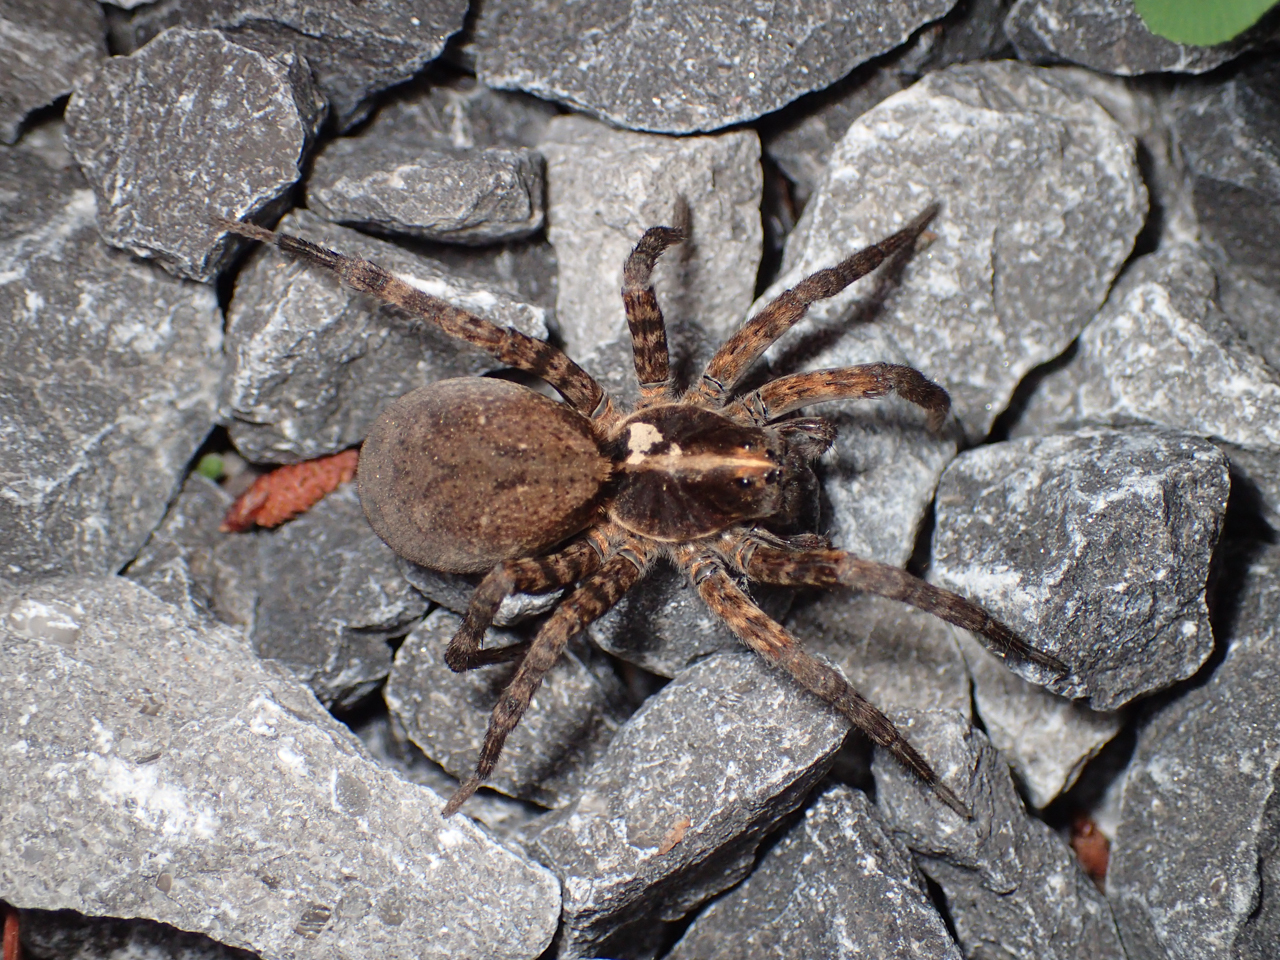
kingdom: Animalia
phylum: Arthropoda
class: Arachnida
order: Araneae
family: Lycosidae
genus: Tigrosa
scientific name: Tigrosa georgicola
